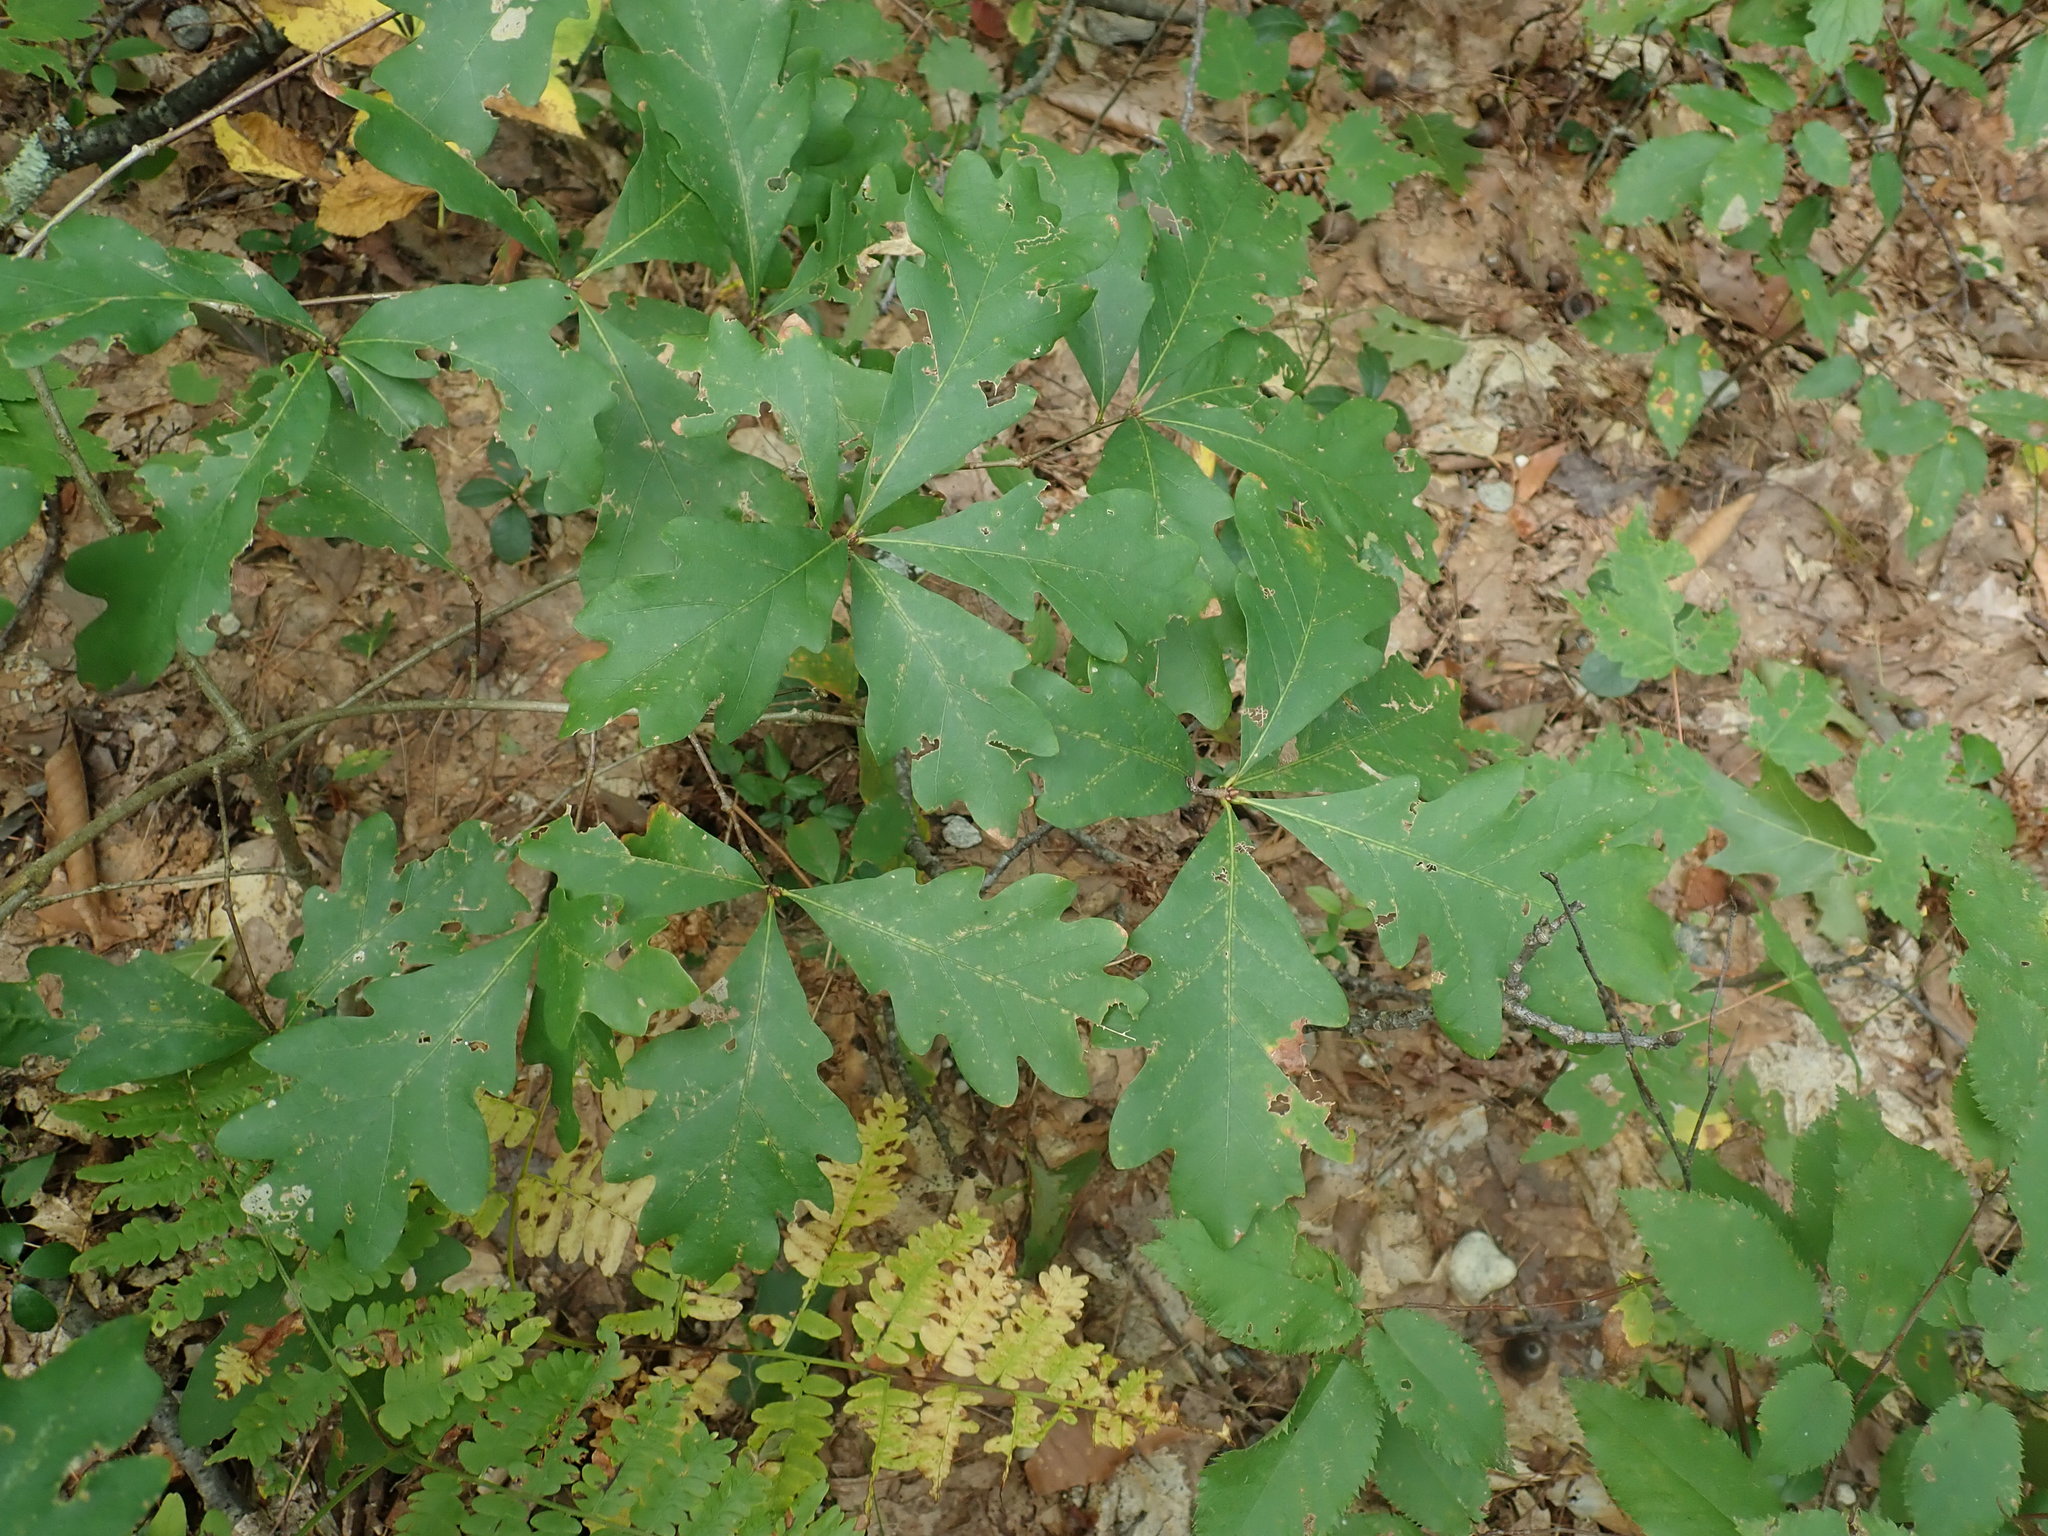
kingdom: Plantae
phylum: Tracheophyta
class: Magnoliopsida
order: Fagales
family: Fagaceae
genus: Quercus
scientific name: Quercus alba
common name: White oak
